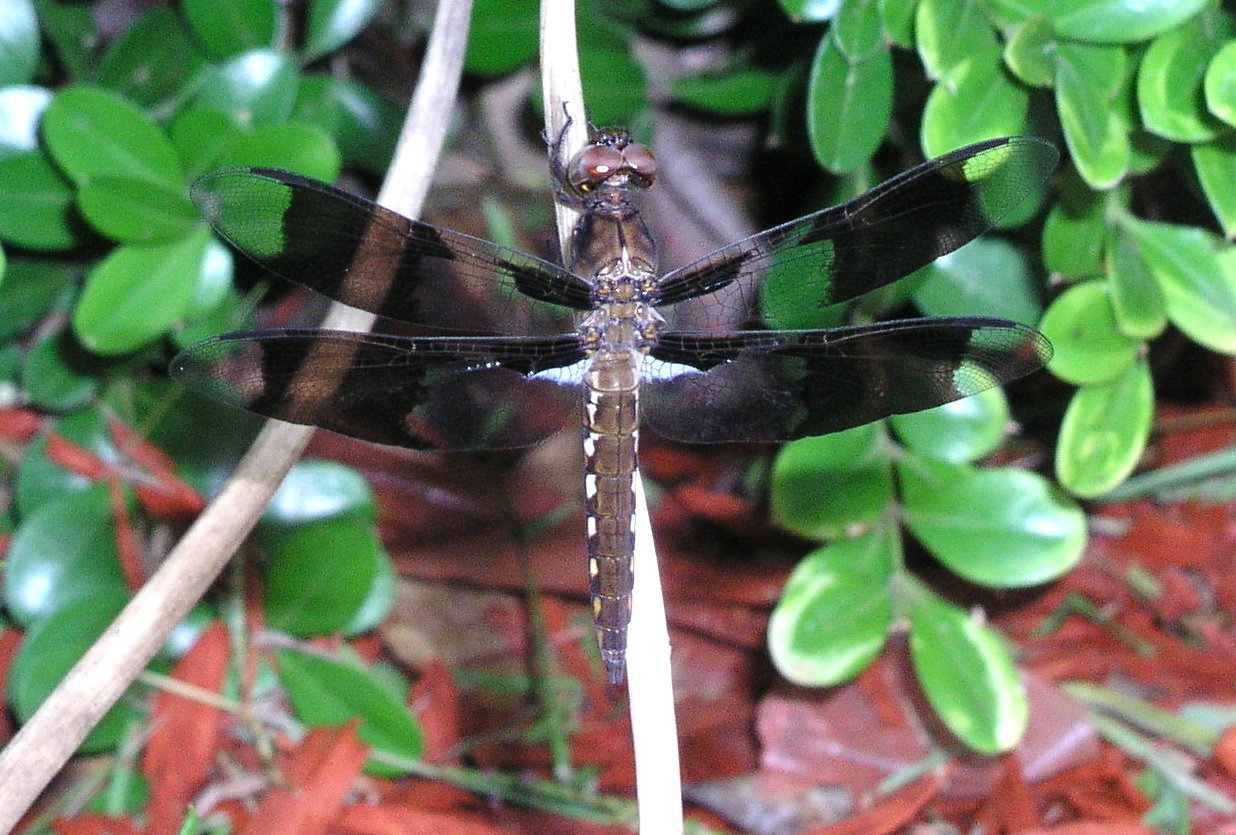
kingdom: Animalia
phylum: Arthropoda
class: Insecta
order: Odonata
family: Libellulidae
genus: Plathemis
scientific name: Plathemis lydia
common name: Common whitetail
